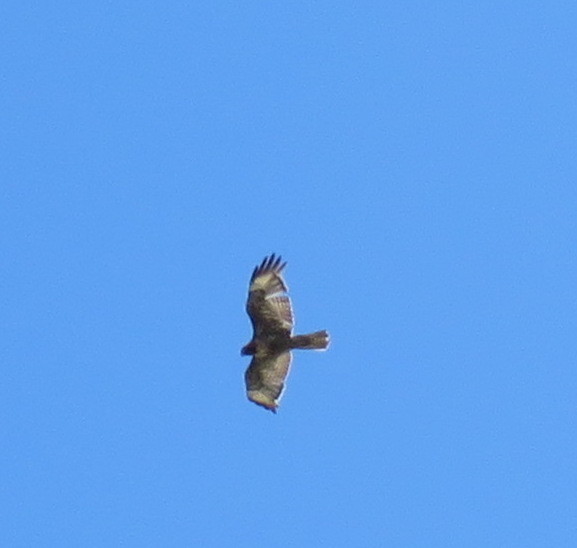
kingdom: Animalia
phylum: Chordata
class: Aves
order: Accipitriformes
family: Accipitridae
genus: Buteo
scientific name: Buteo jamaicensis
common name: Red-tailed hawk
